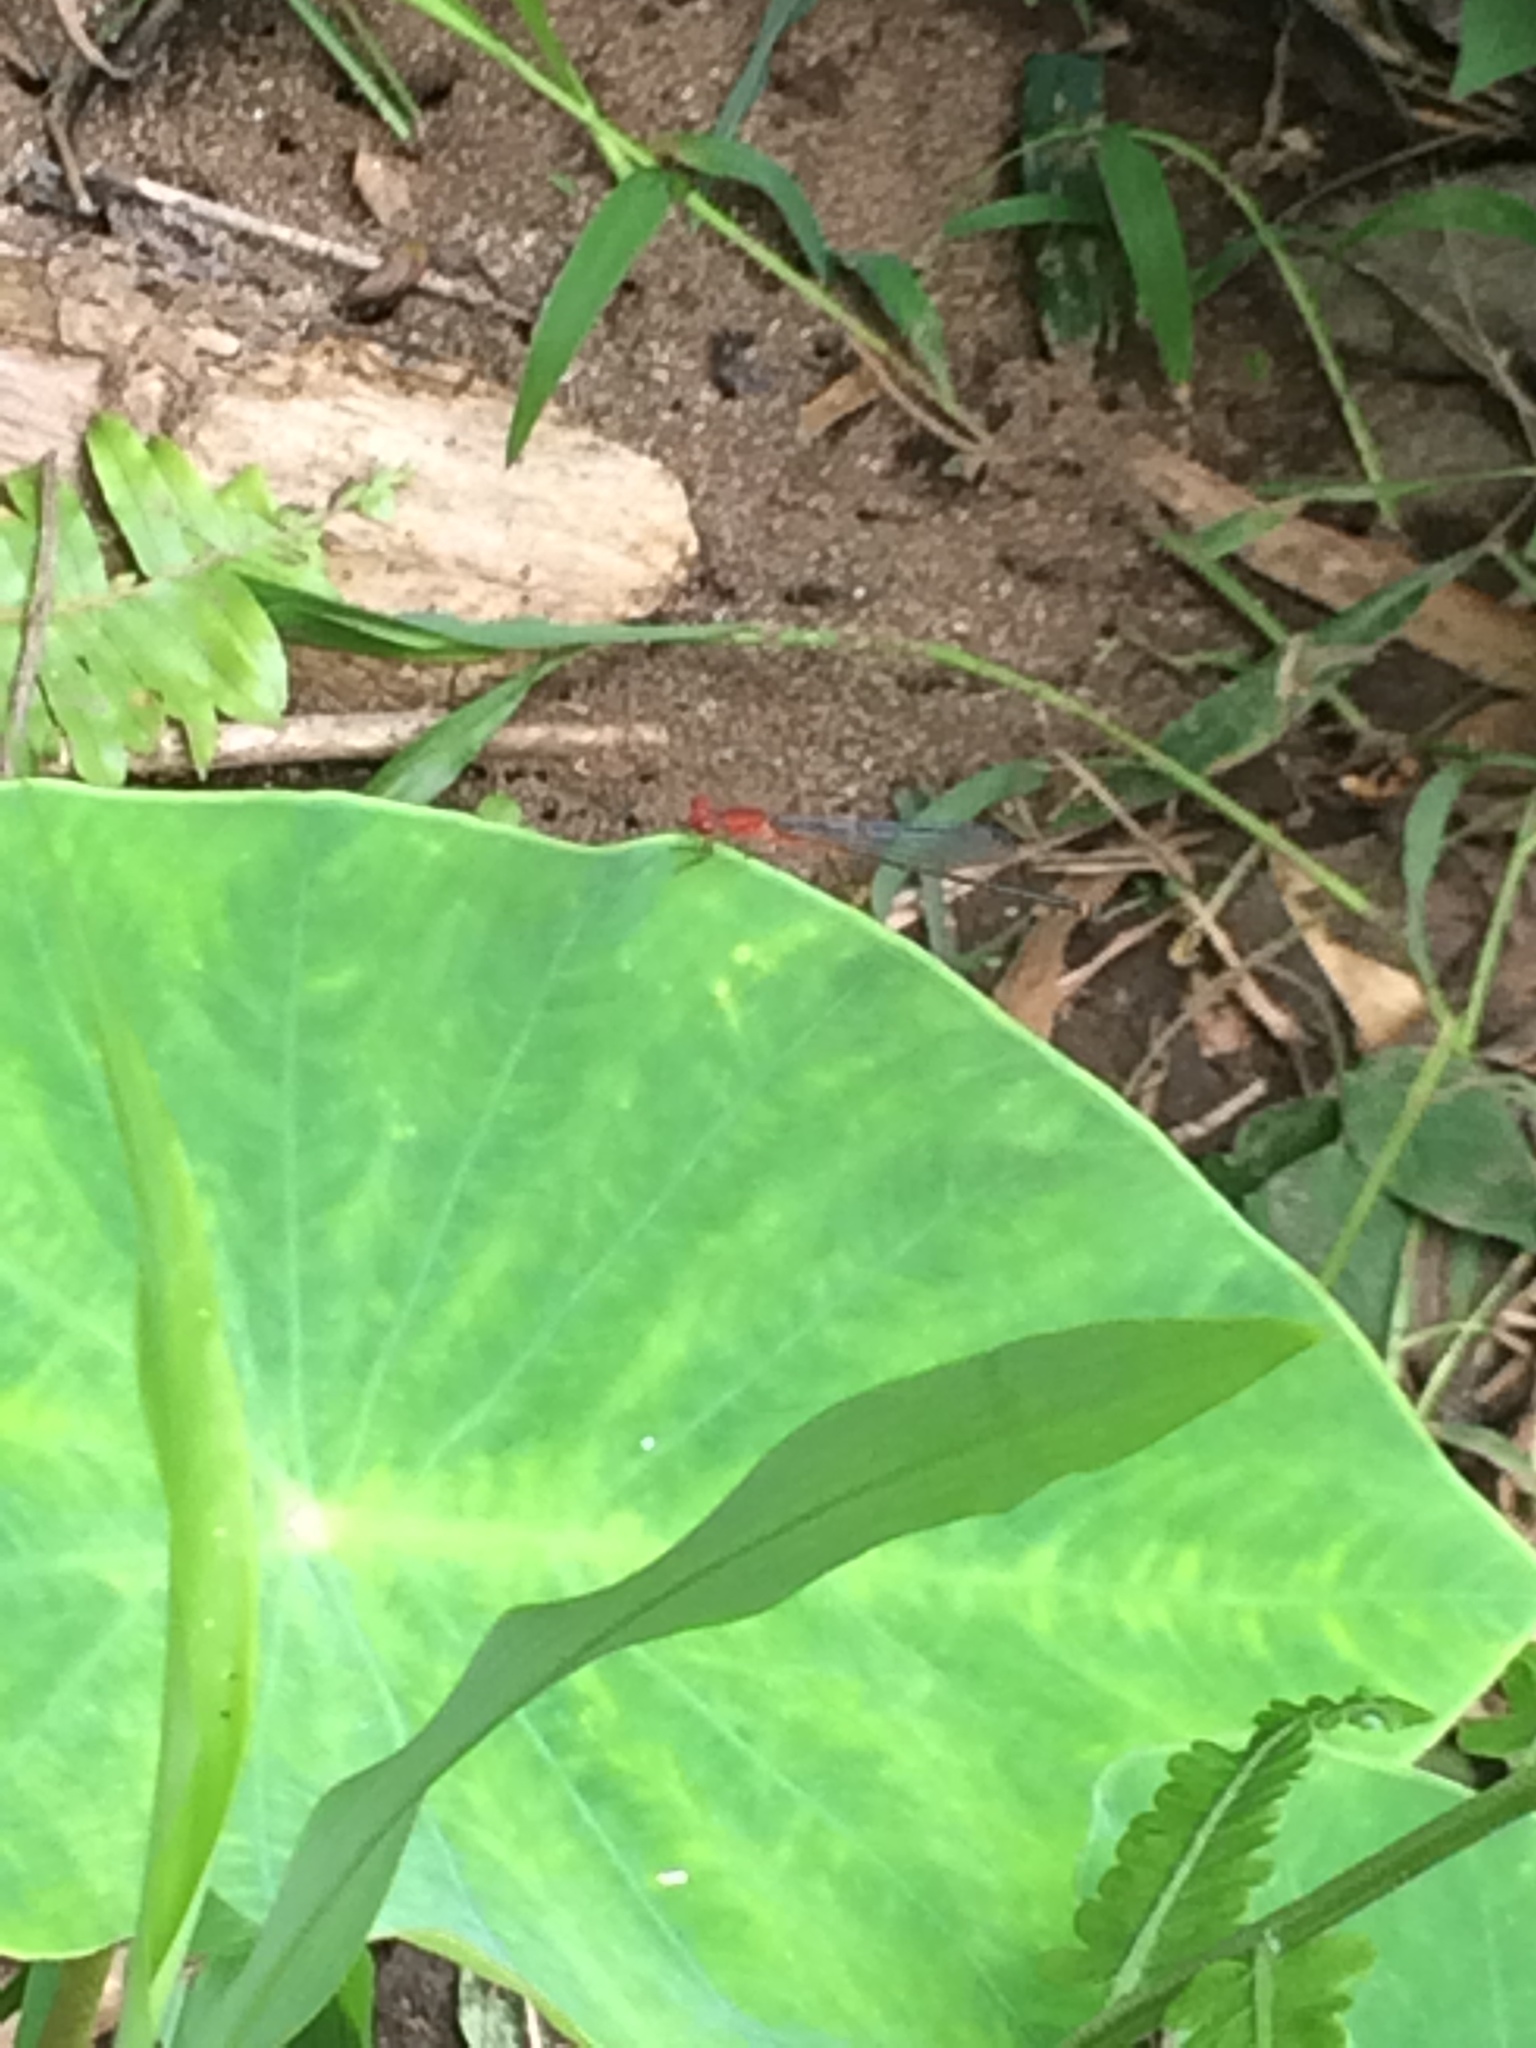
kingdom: Animalia
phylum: Arthropoda
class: Insecta
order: Odonata
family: Coenagrionidae
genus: Pseudagrion
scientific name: Pseudagrion pilidorsum
